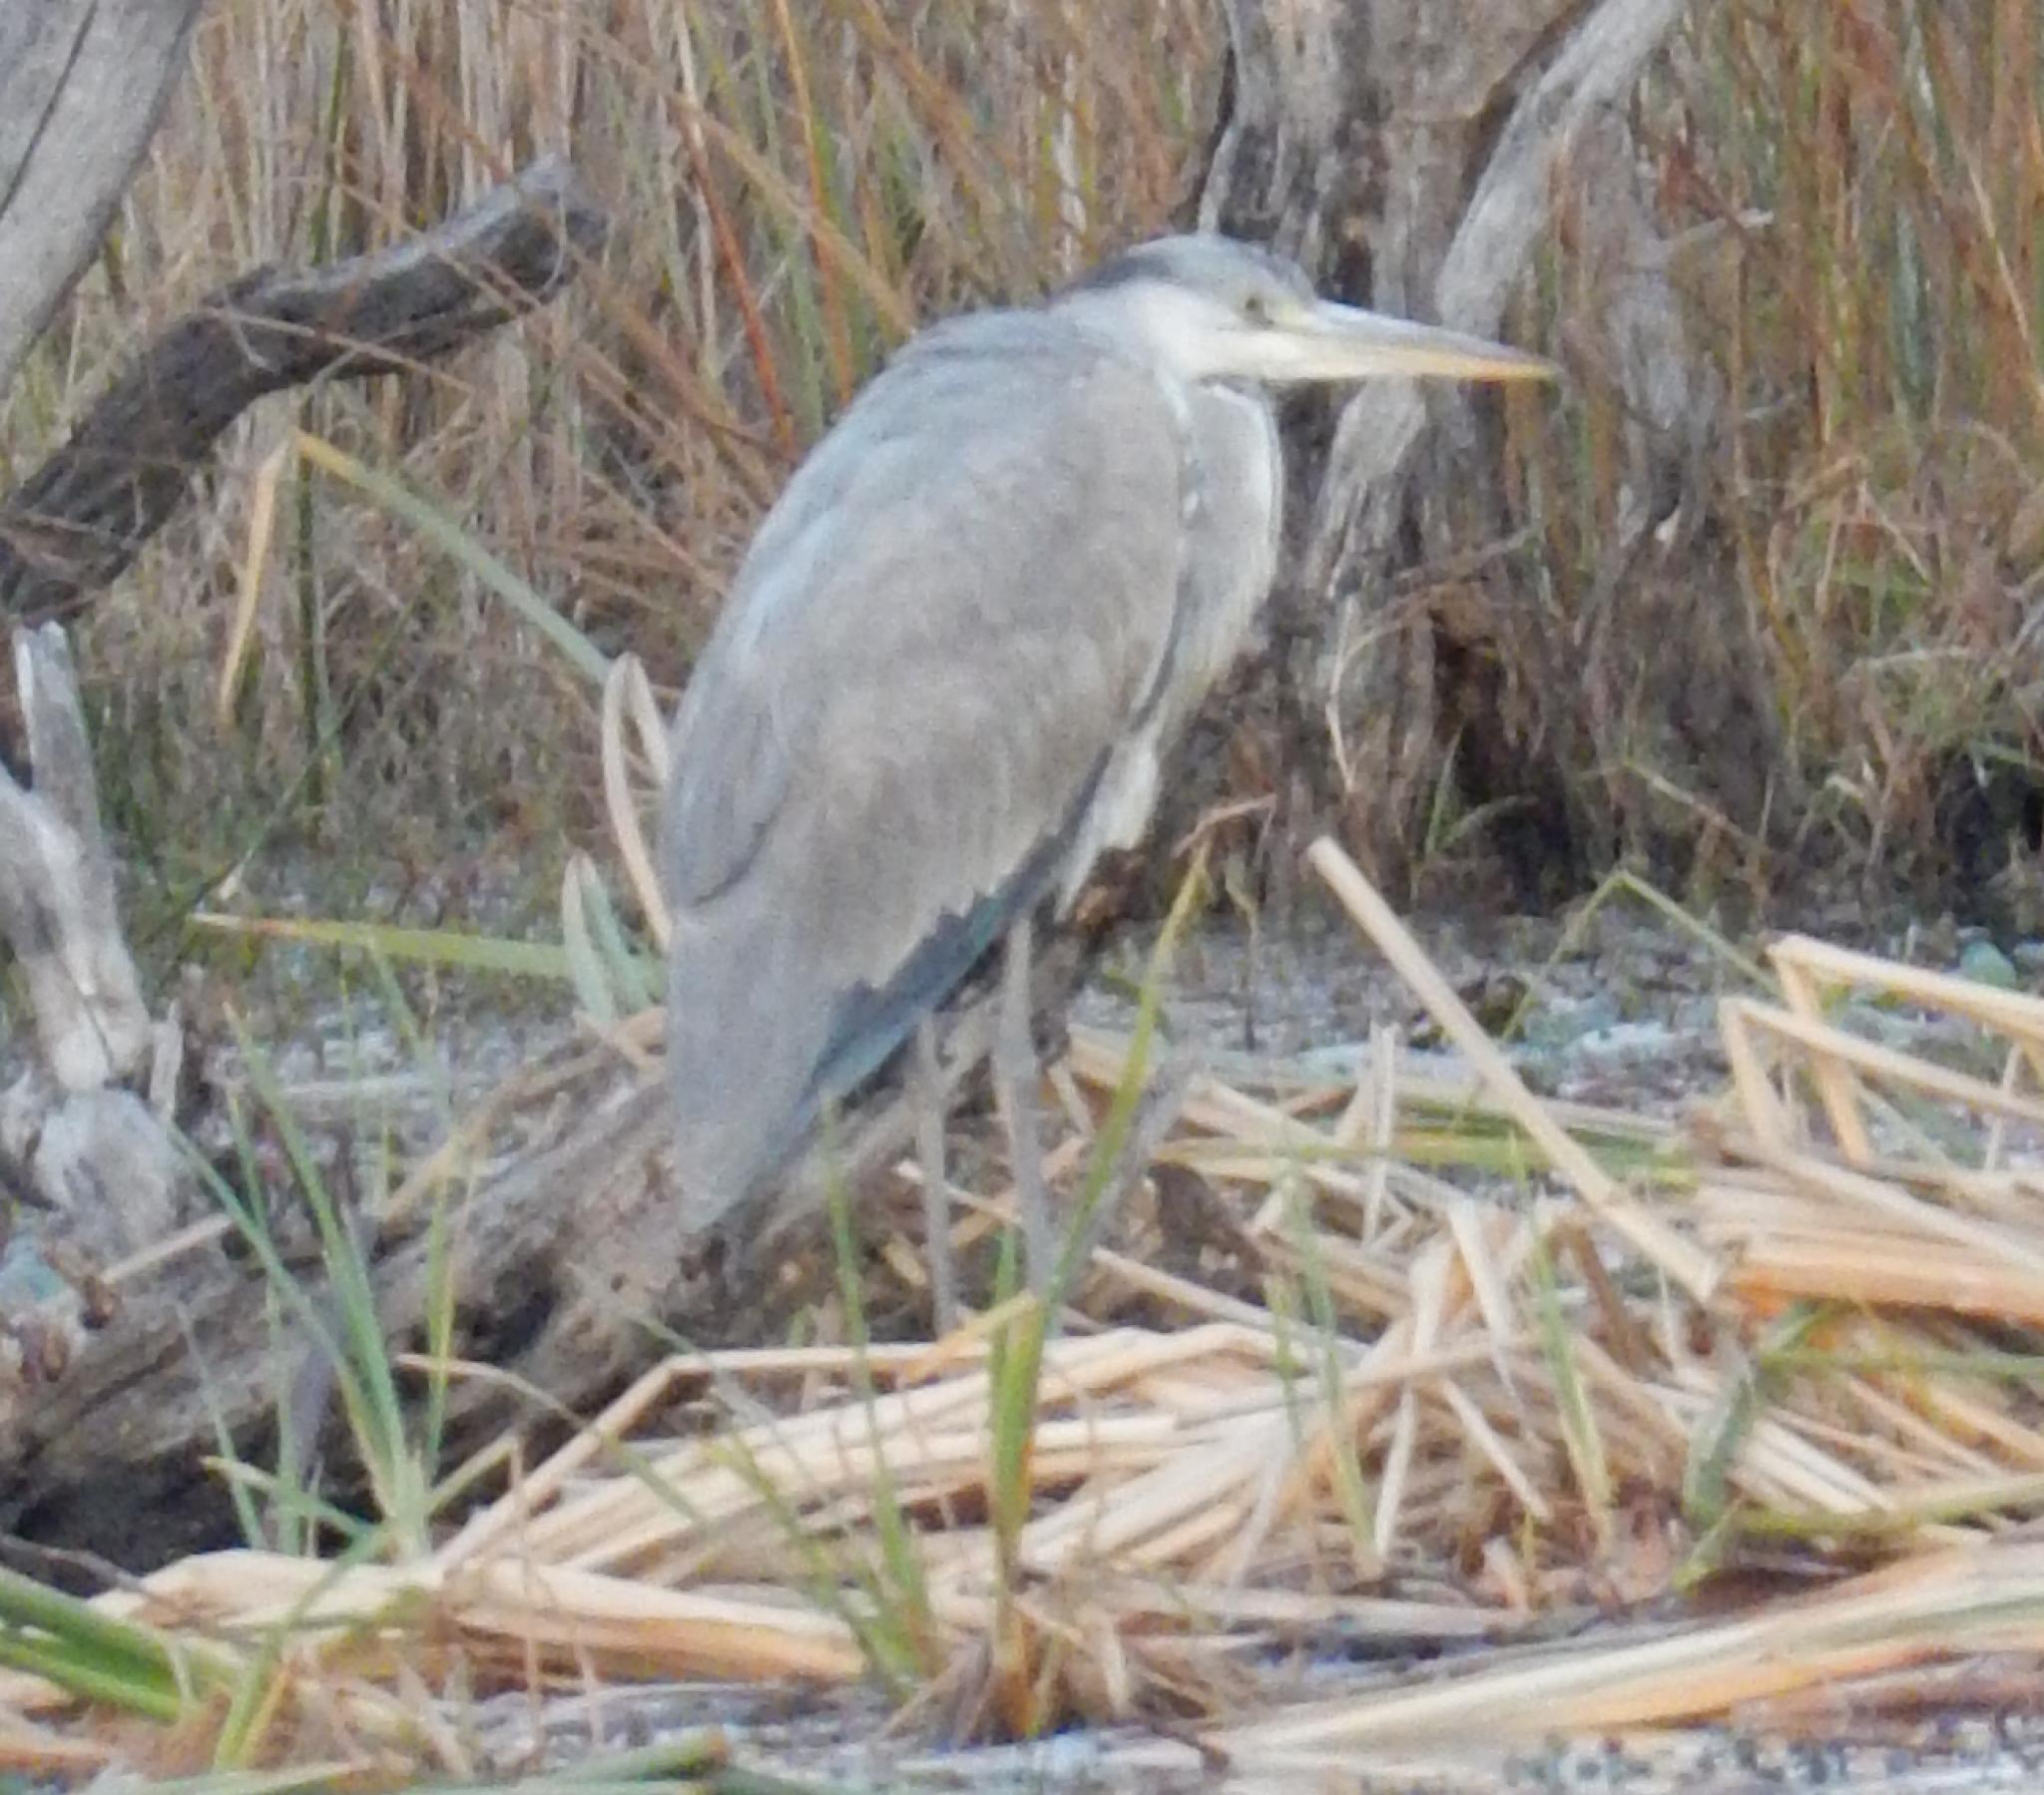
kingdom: Animalia
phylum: Chordata
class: Aves
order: Pelecaniformes
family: Ardeidae
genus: Ardea
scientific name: Ardea cinerea
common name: Grey heron
